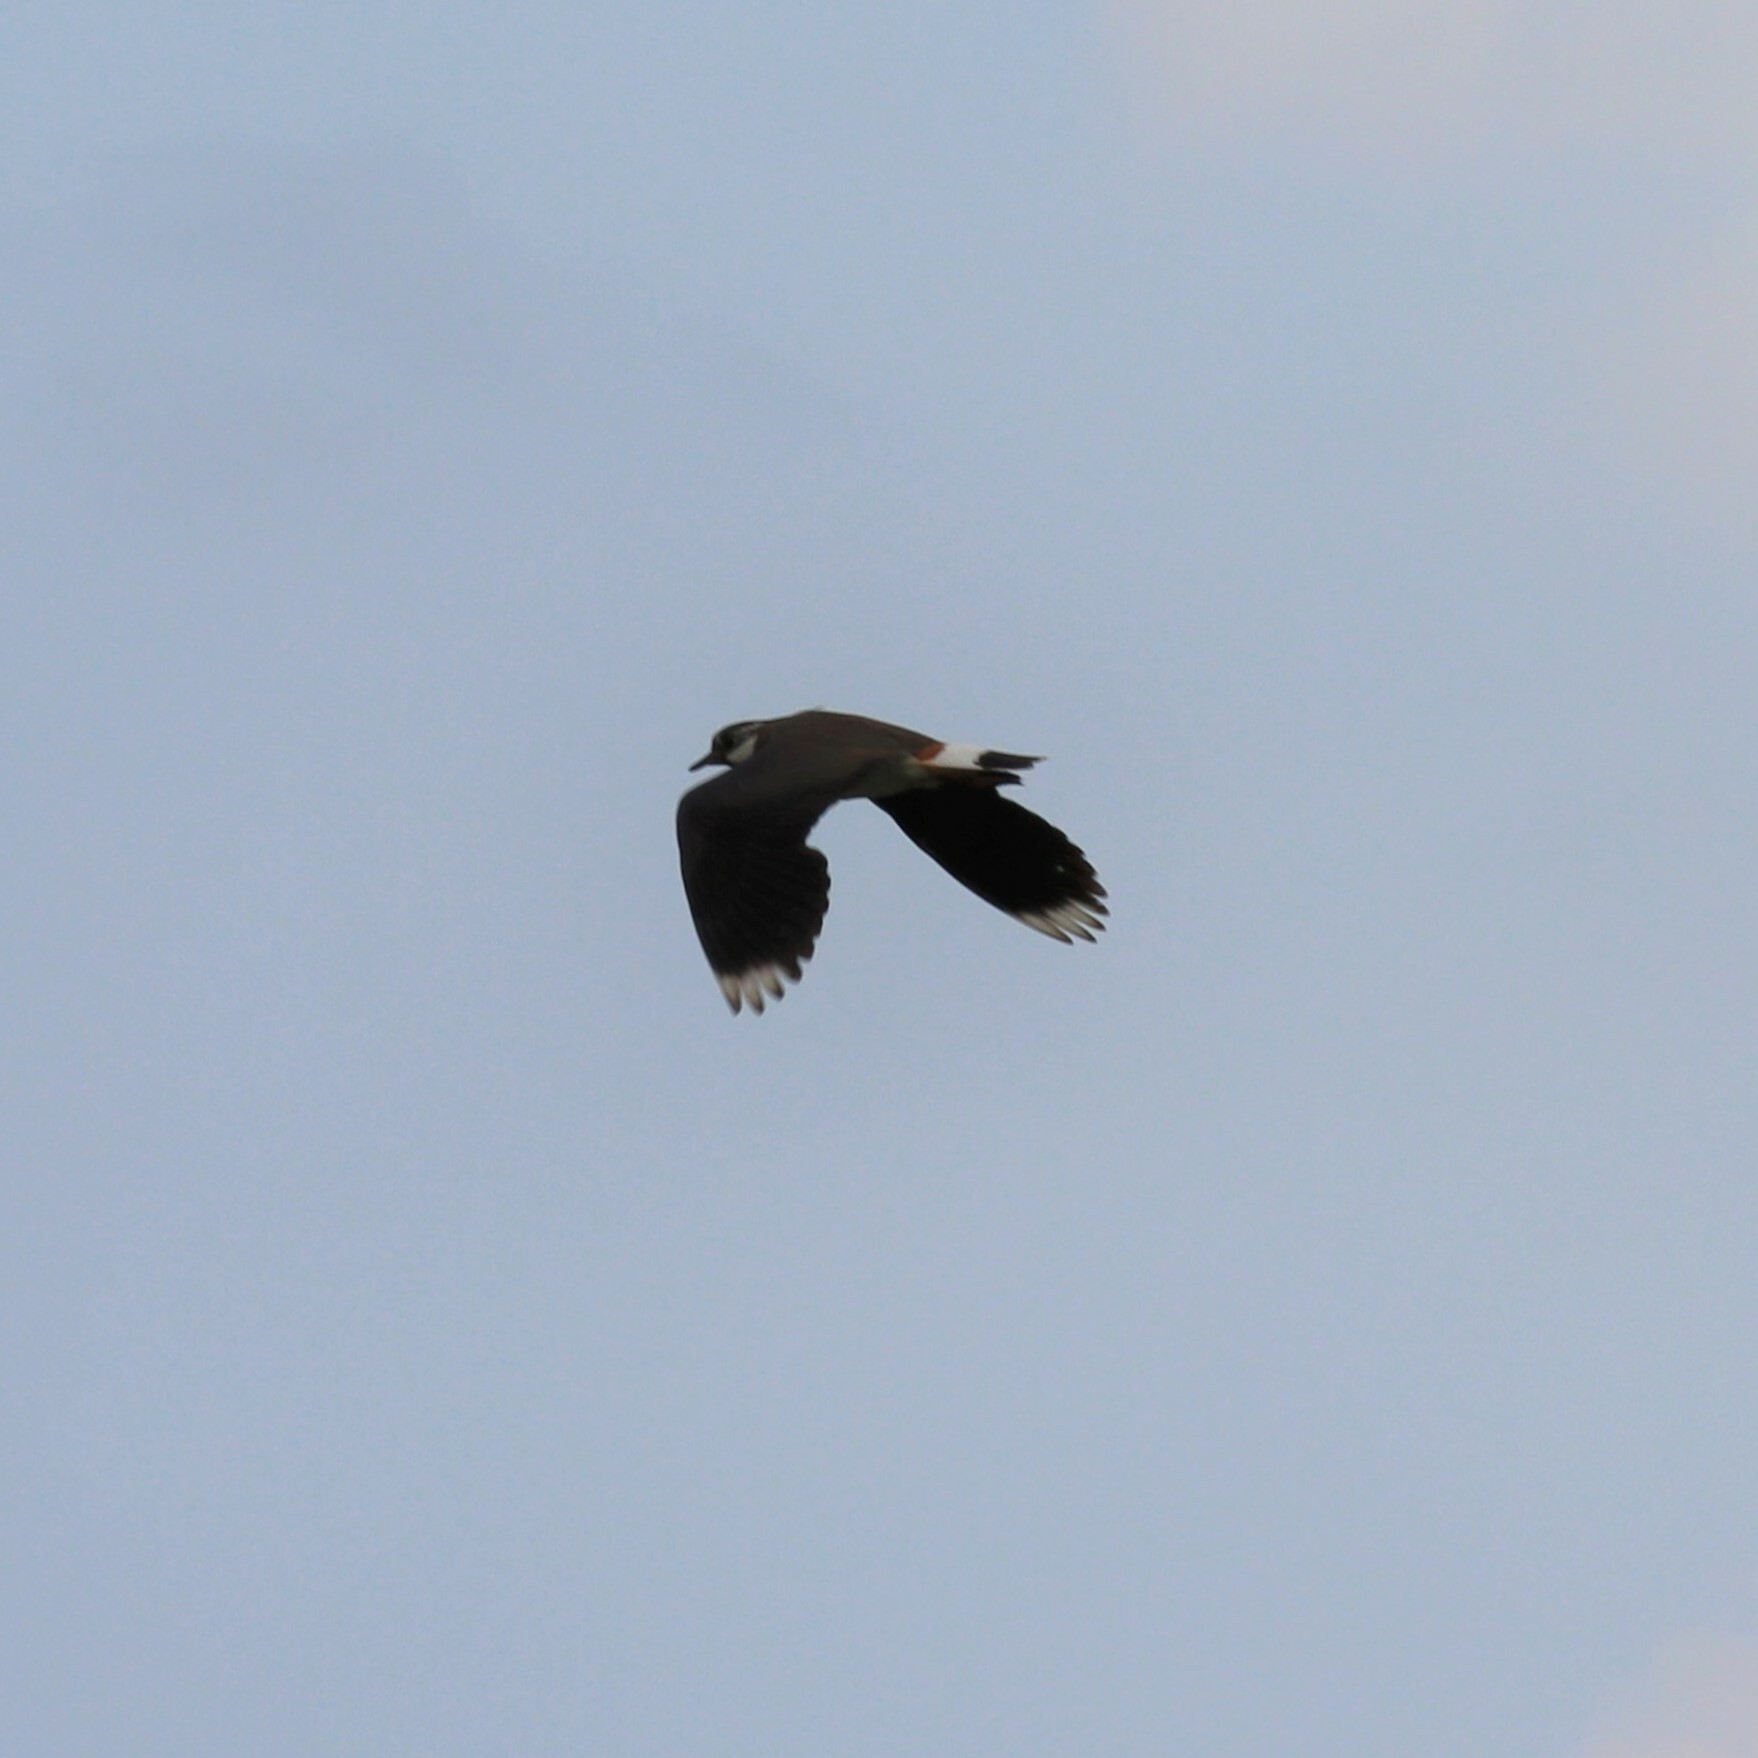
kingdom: Animalia
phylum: Chordata
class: Aves
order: Charadriiformes
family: Charadriidae
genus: Vanellus
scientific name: Vanellus vanellus
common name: Northern lapwing
